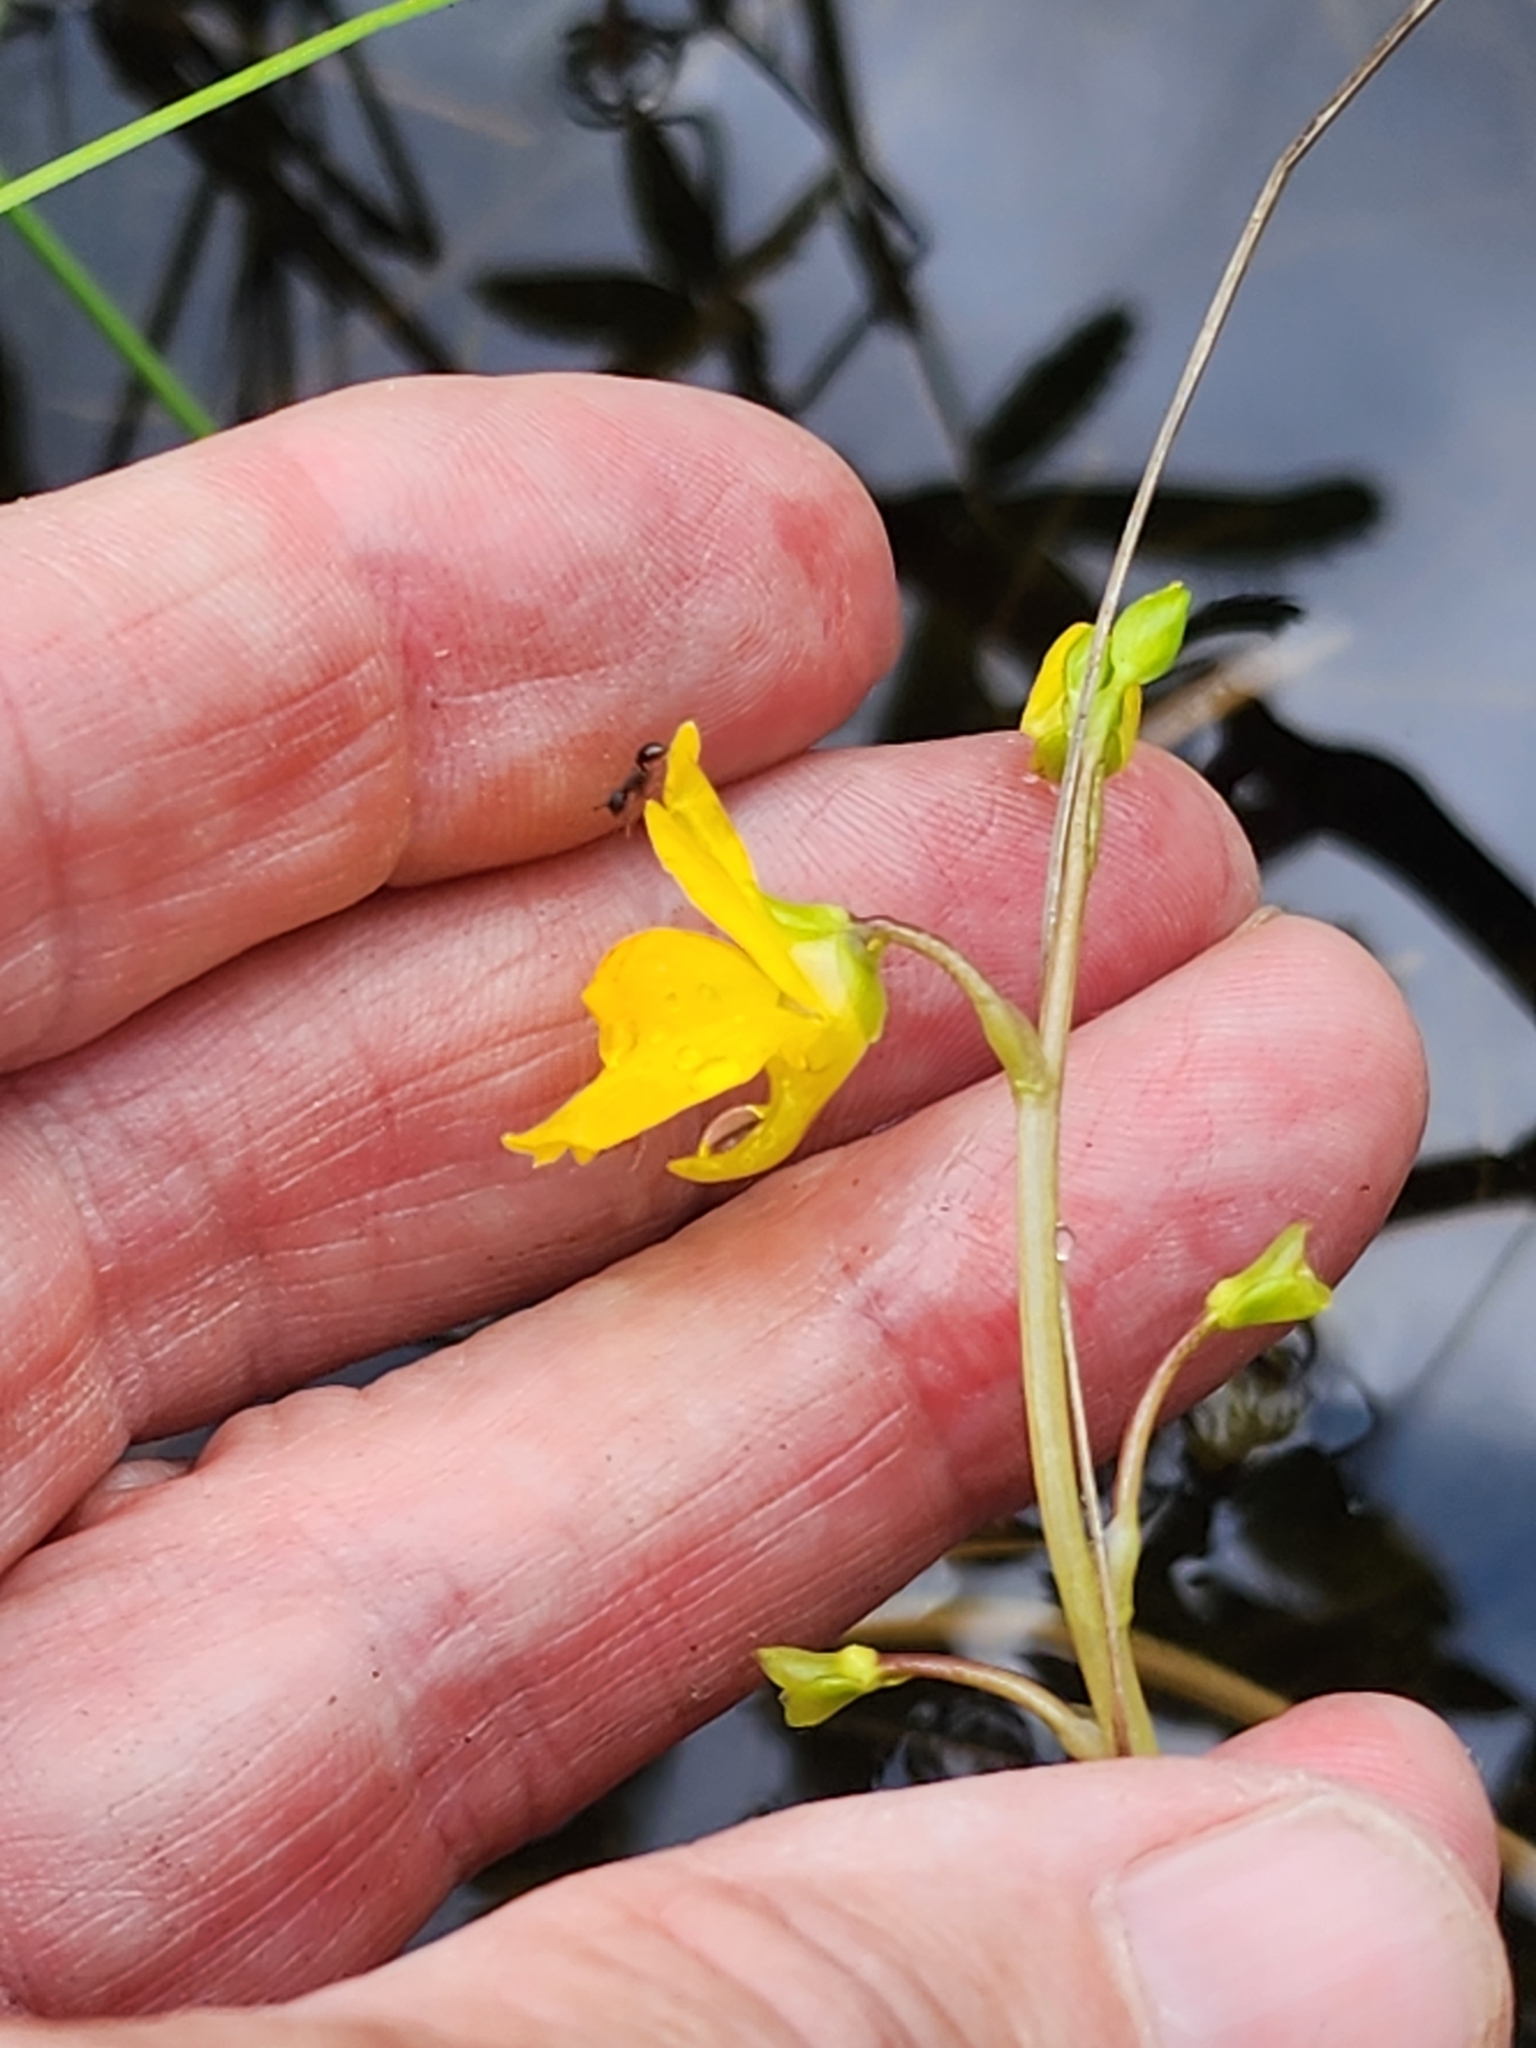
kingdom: Plantae
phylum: Tracheophyta
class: Magnoliopsida
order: Lamiales
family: Lentibulariaceae
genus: Utricularia
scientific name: Utricularia macrorhiza
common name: Common bladderwort
